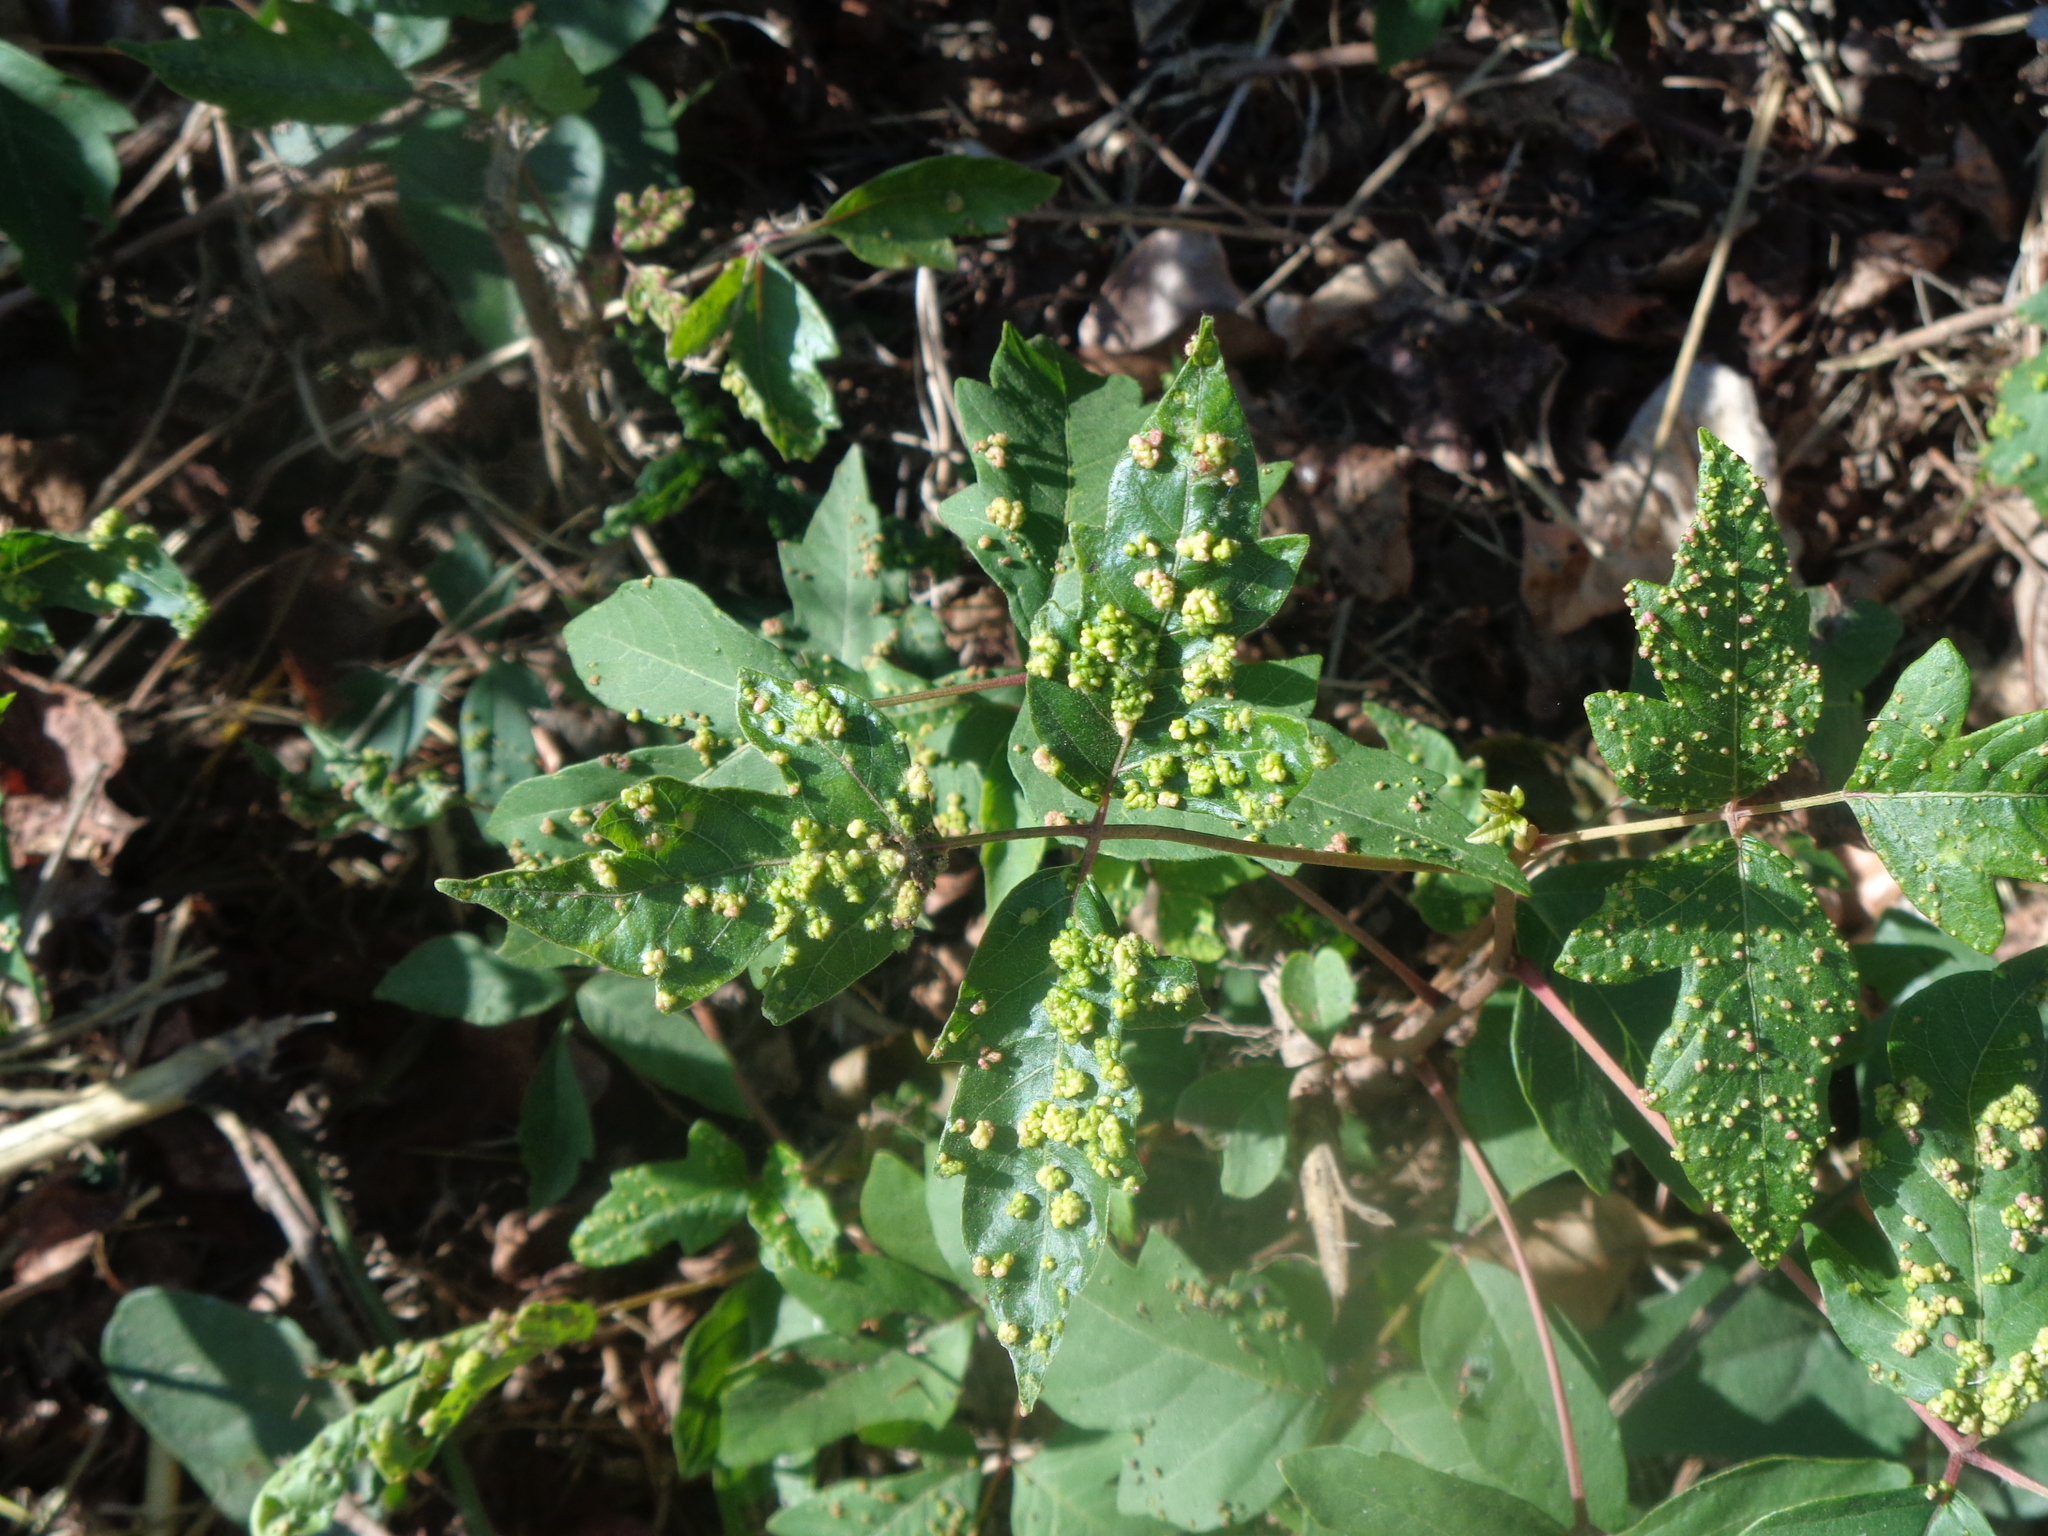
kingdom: Animalia
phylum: Arthropoda
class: Arachnida
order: Trombidiformes
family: Eriophyidae
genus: Aculops
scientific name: Aculops
